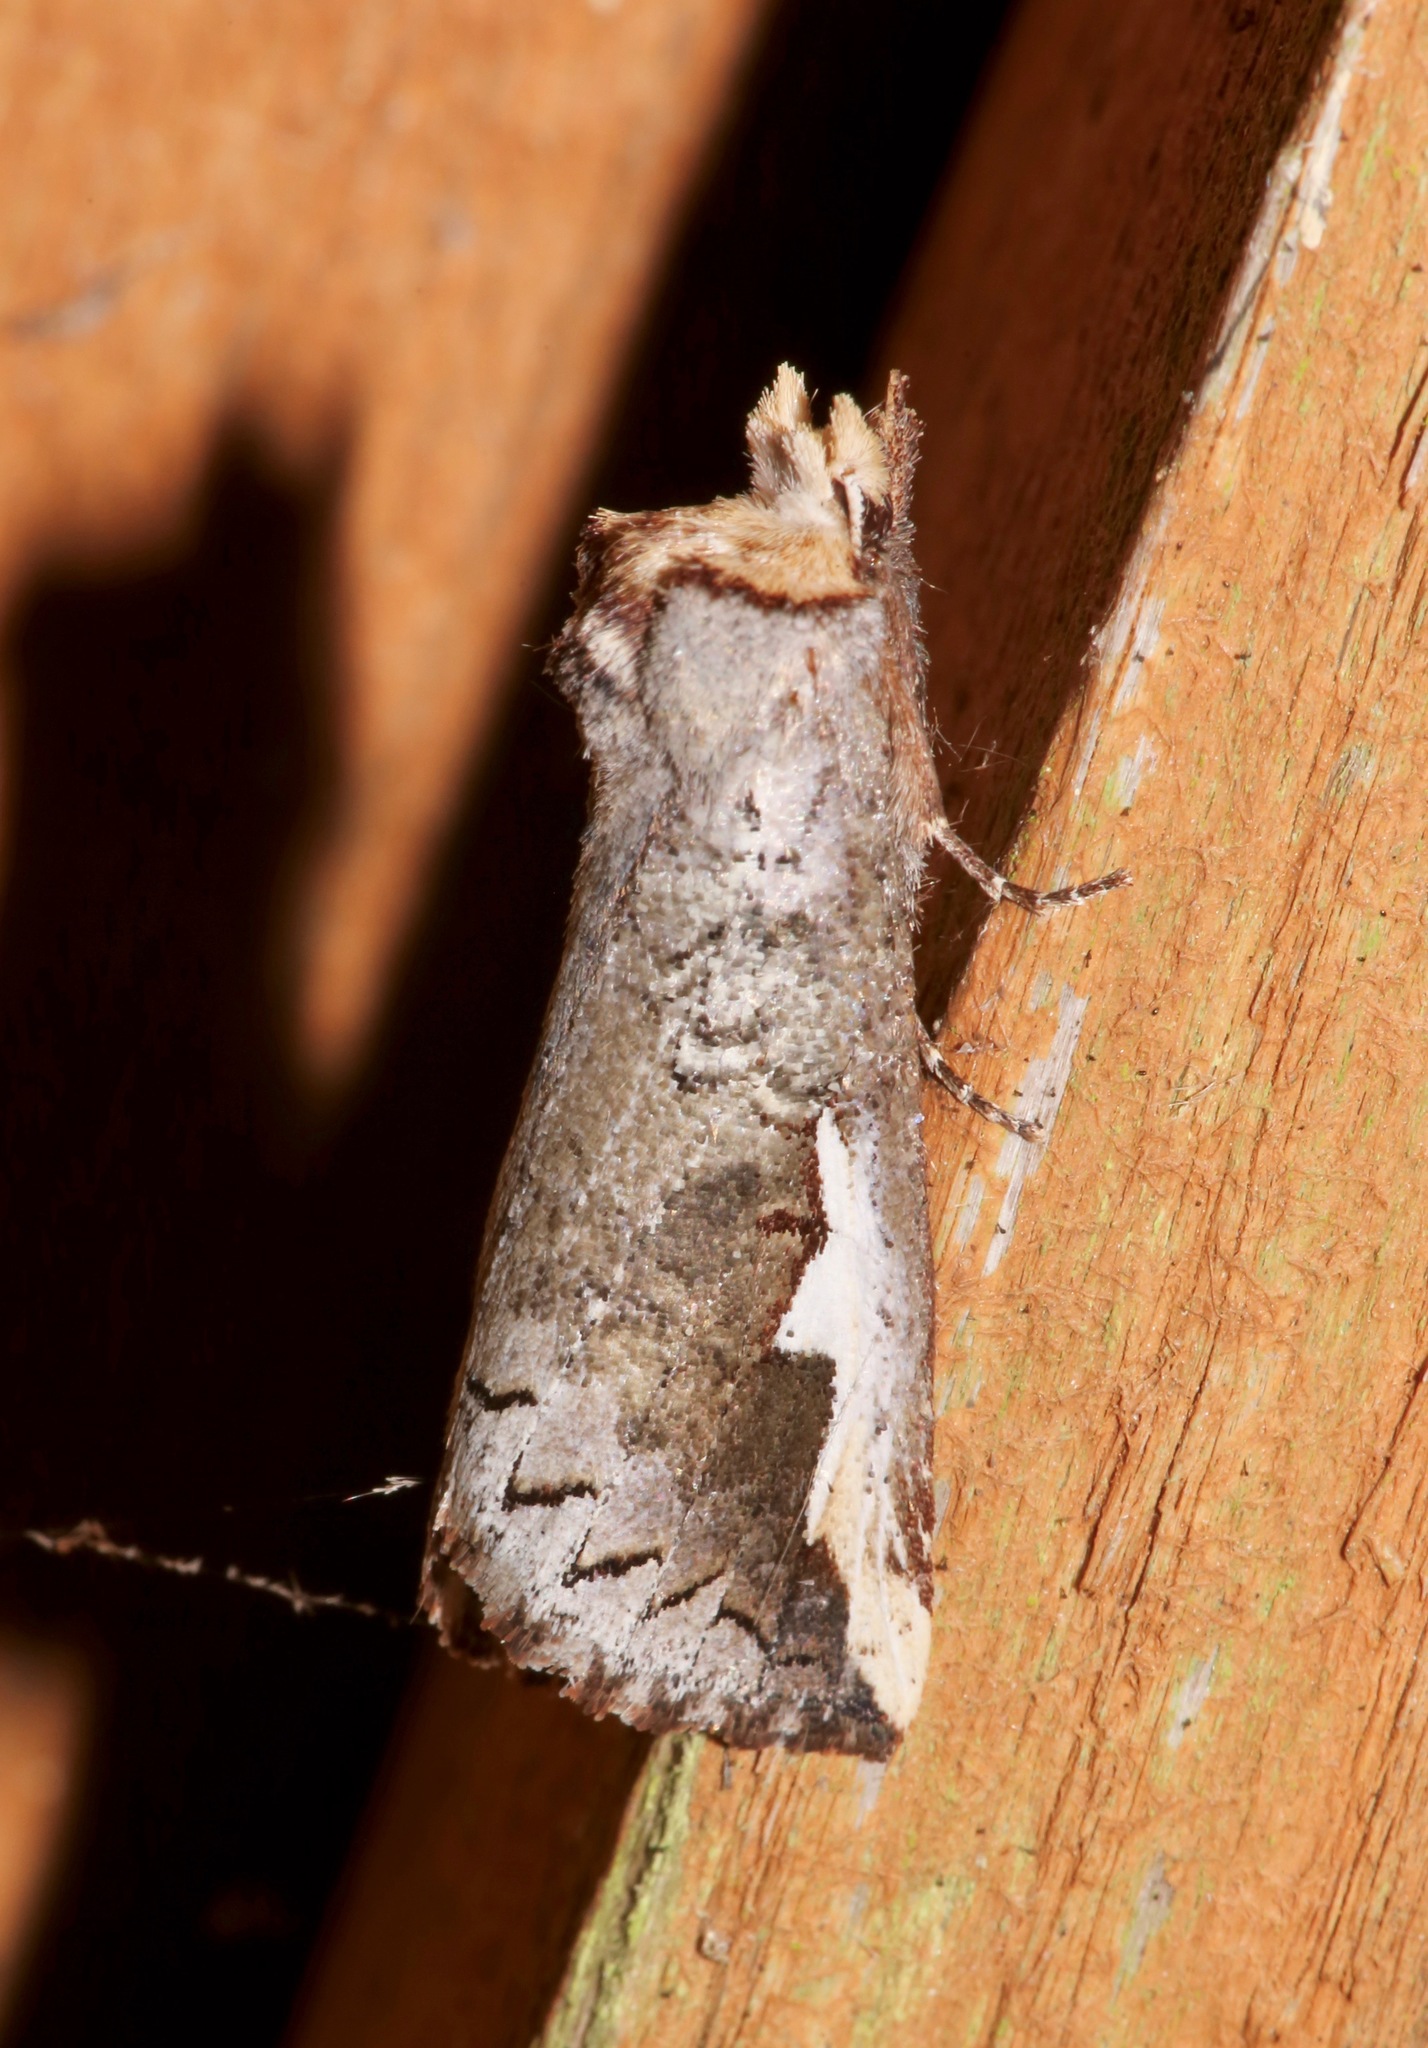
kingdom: Animalia
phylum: Arthropoda
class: Insecta
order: Lepidoptera
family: Notodontidae
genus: Symmerista
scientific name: Symmerista
